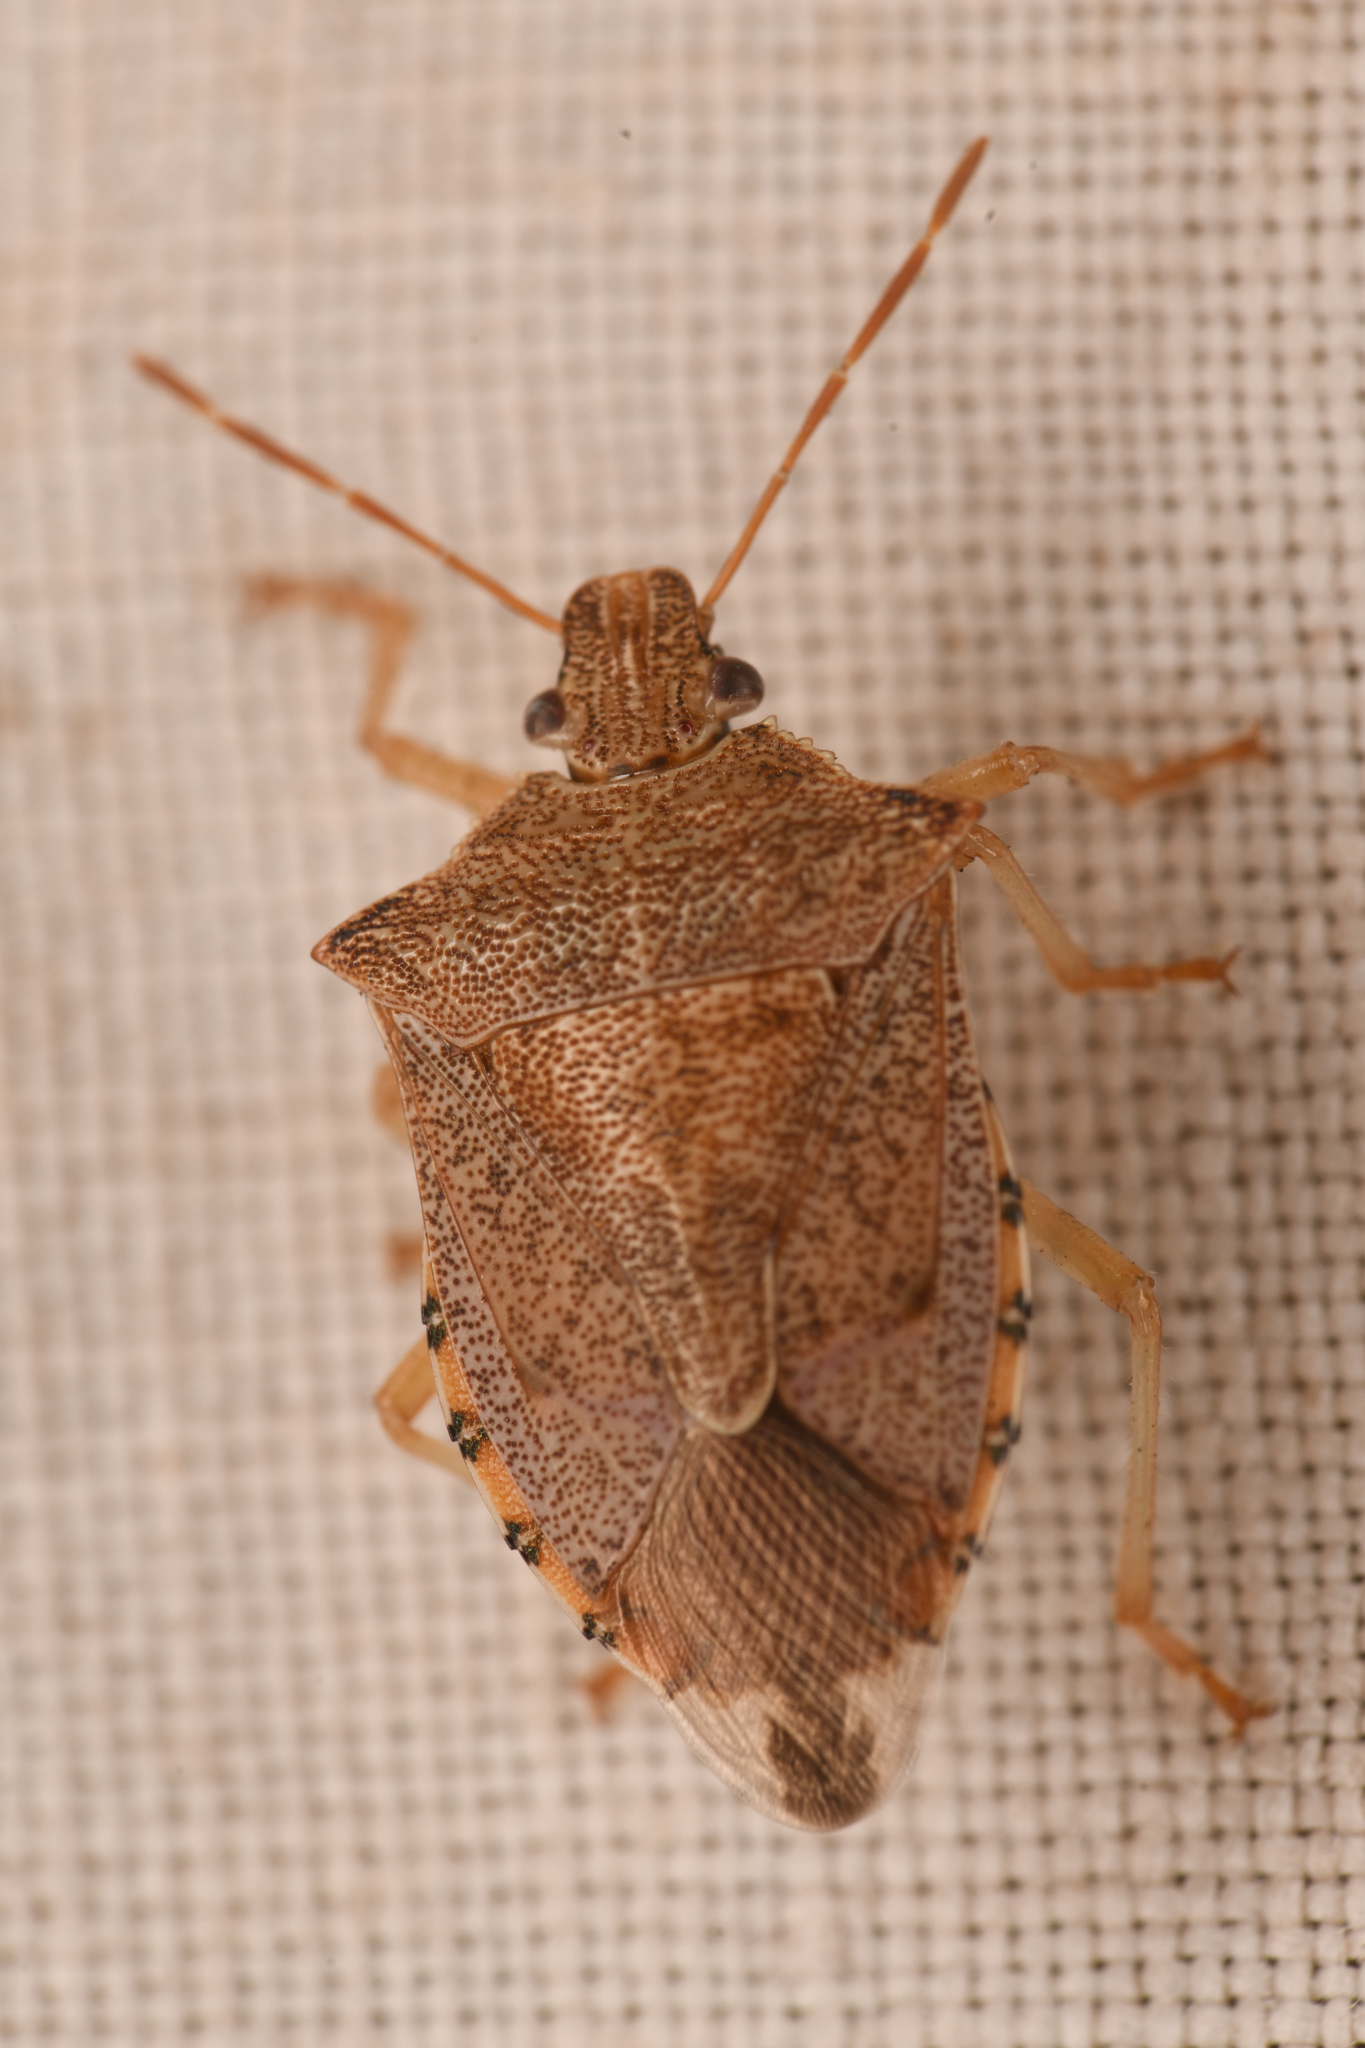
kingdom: Animalia
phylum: Arthropoda
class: Insecta
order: Hemiptera
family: Pentatomidae
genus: Podisus
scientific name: Podisus maculiventris
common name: Spined soldier bug
